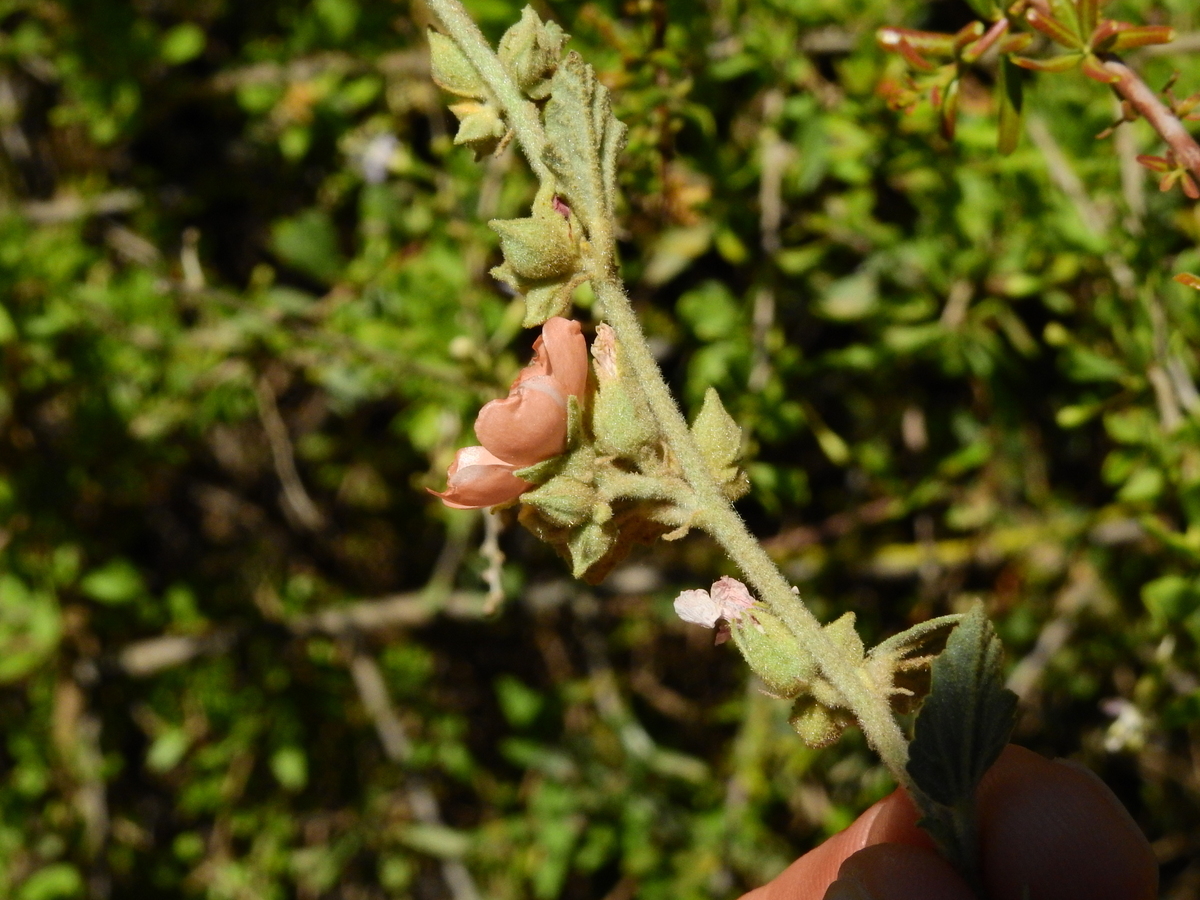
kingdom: Plantae
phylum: Tracheophyta
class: Magnoliopsida
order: Malvales
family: Malvaceae
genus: Sphaeralcea
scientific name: Sphaeralcea bonariensis
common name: Latin globemallow
